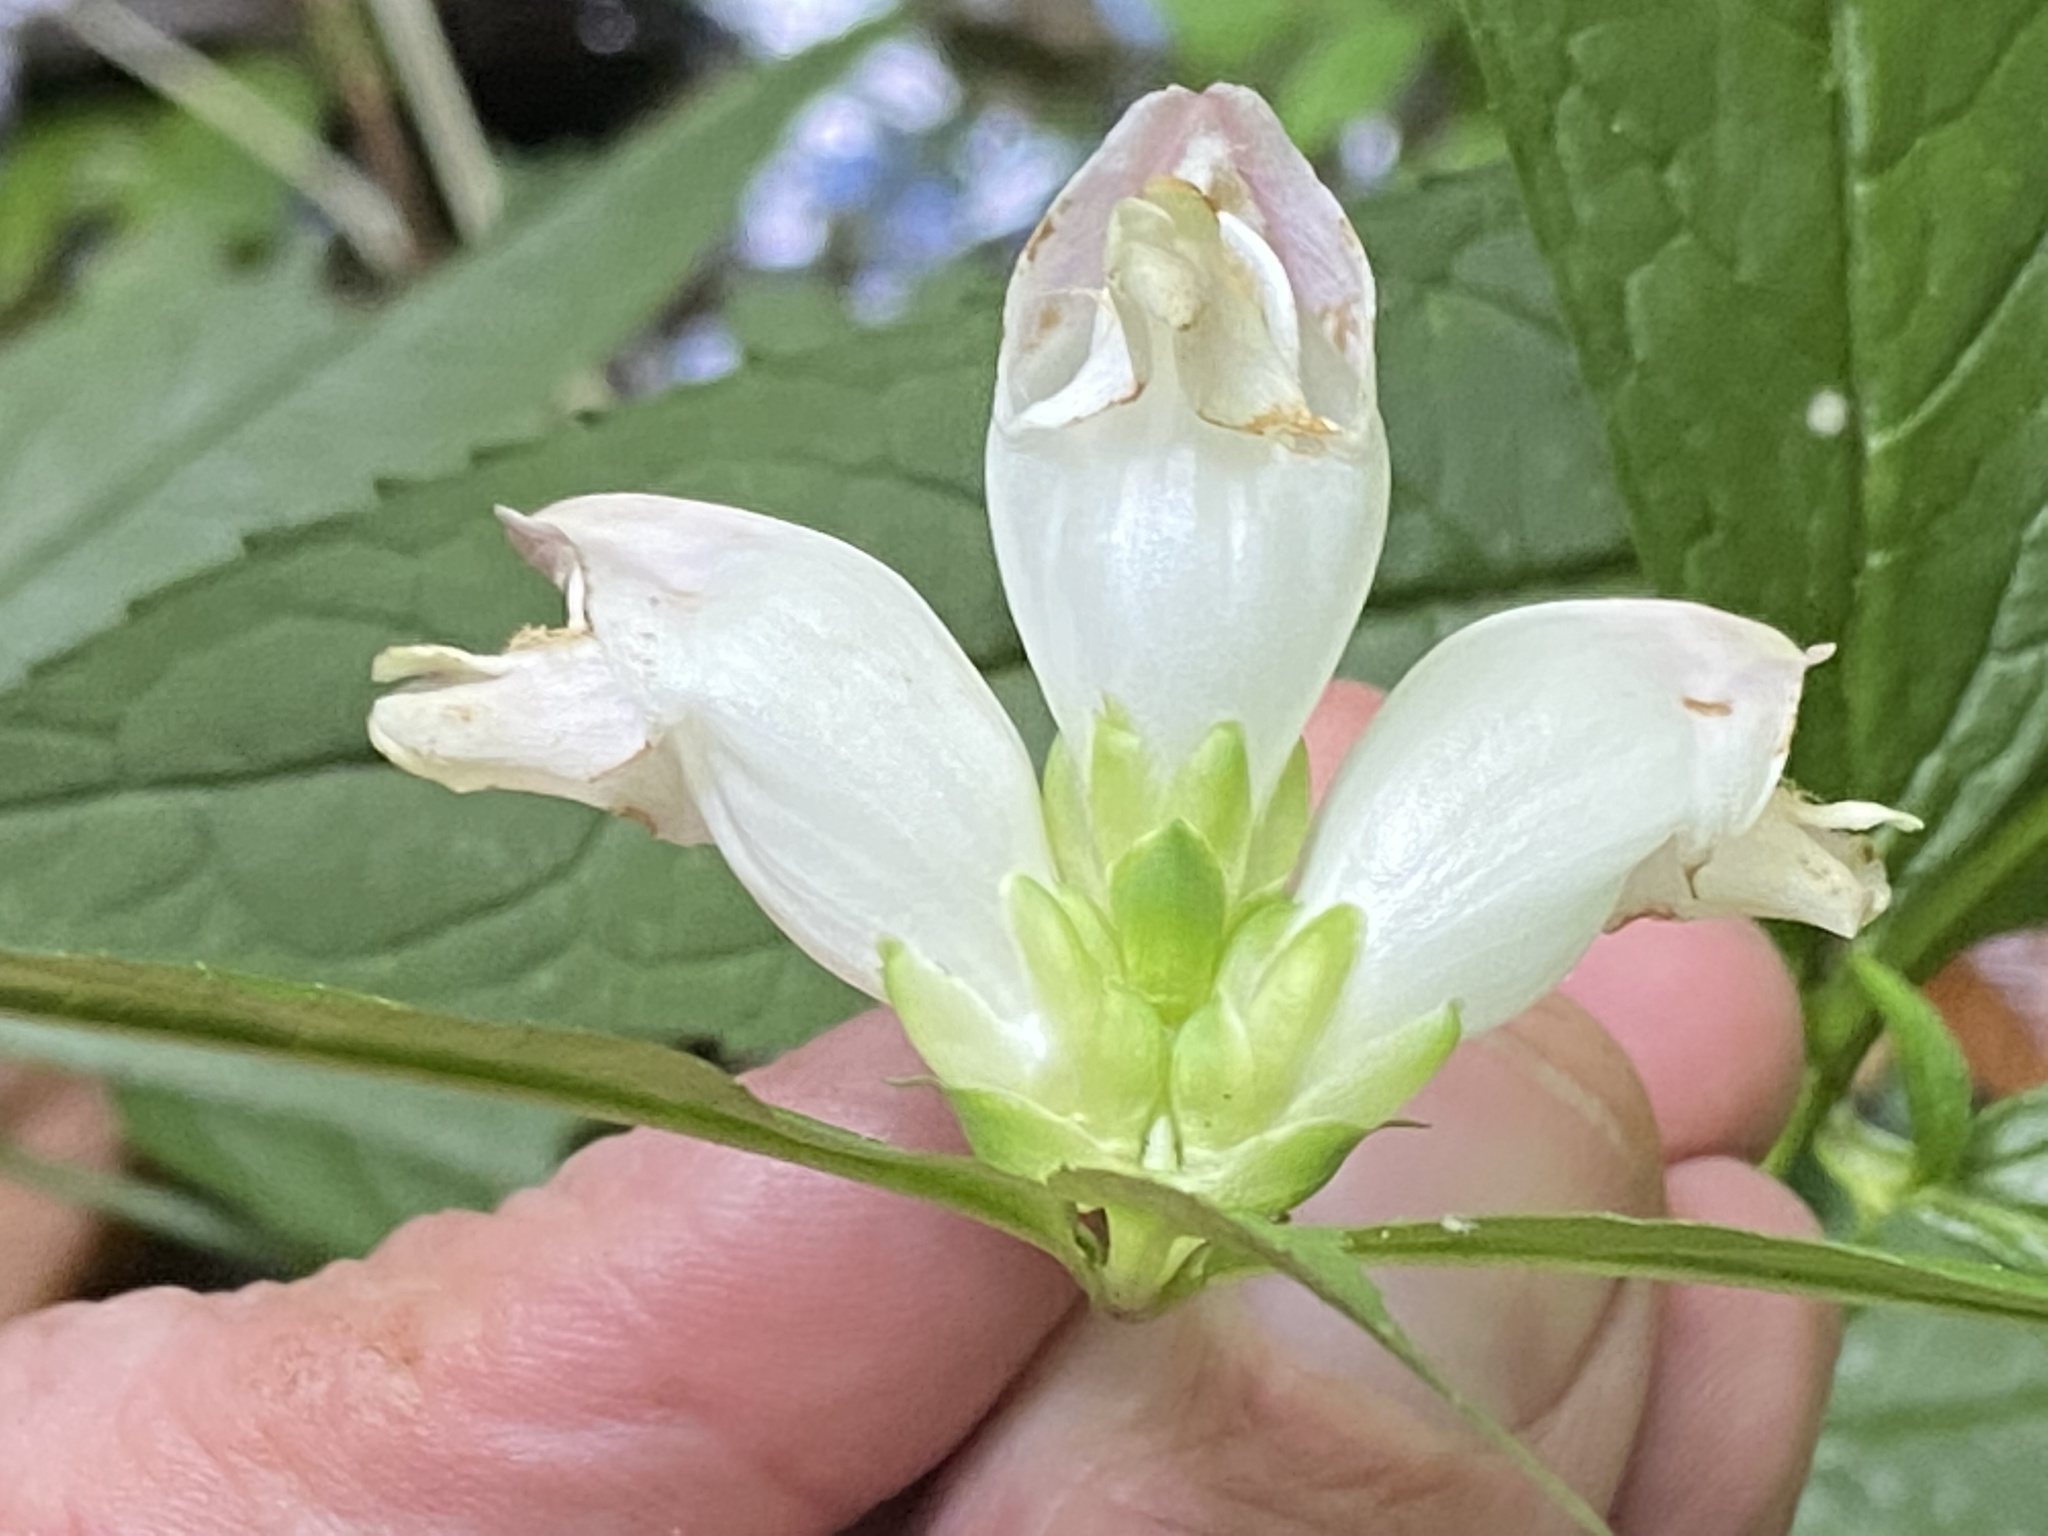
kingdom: Plantae
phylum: Tracheophyta
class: Magnoliopsida
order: Lamiales
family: Plantaginaceae
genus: Chelone
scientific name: Chelone glabra
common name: Snakehead
